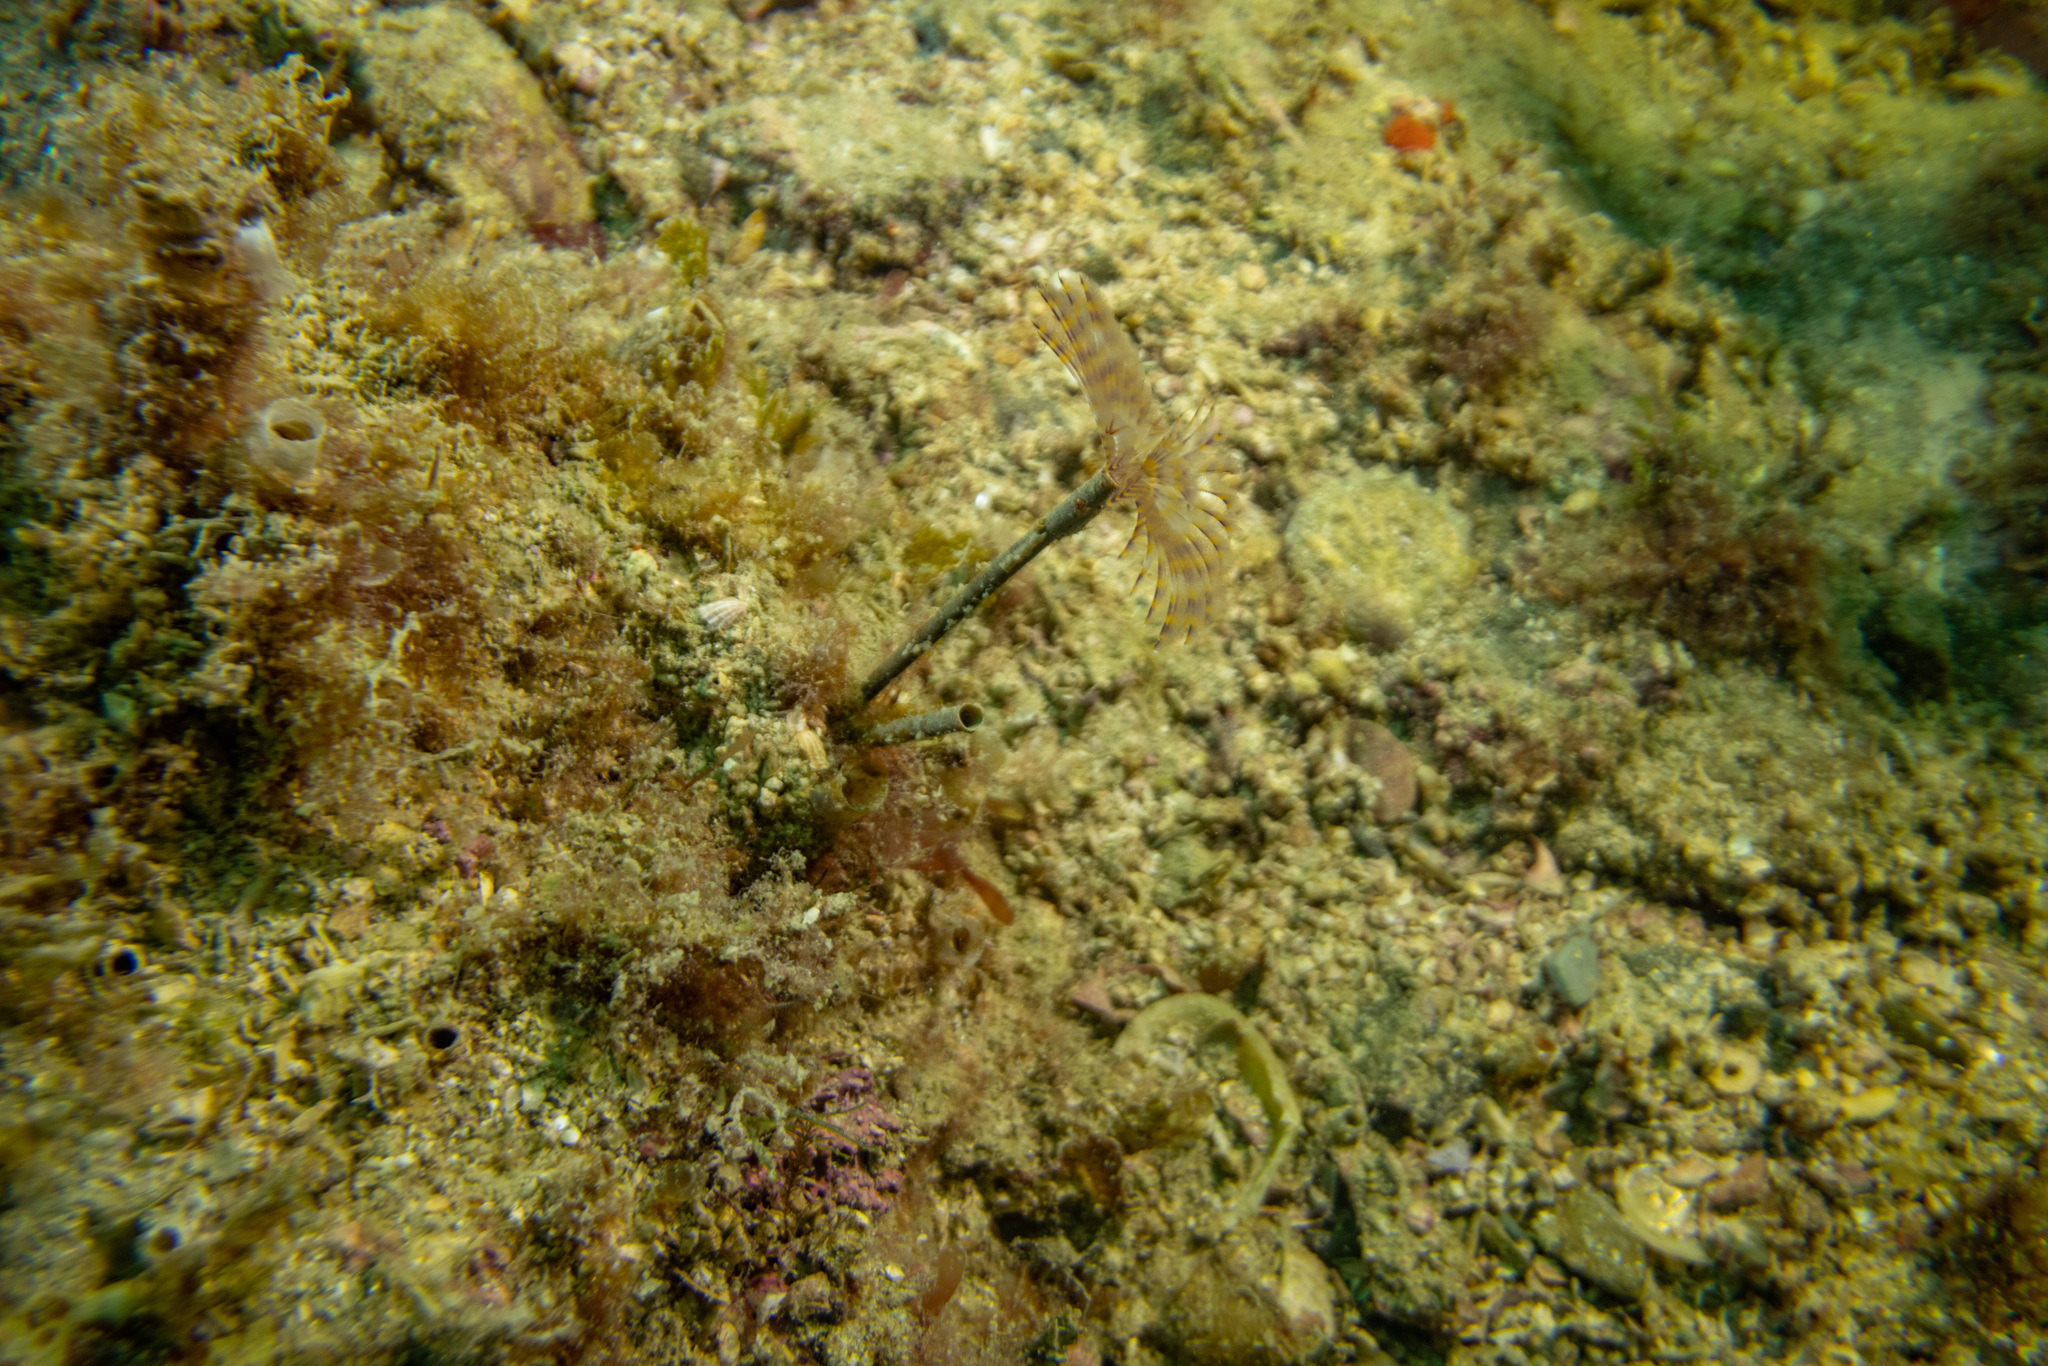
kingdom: Animalia
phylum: Annelida
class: Polychaeta
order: Sabellida
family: Sabellidae
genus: Sabella
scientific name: Sabella spallanzanii
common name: Feather duster worm
